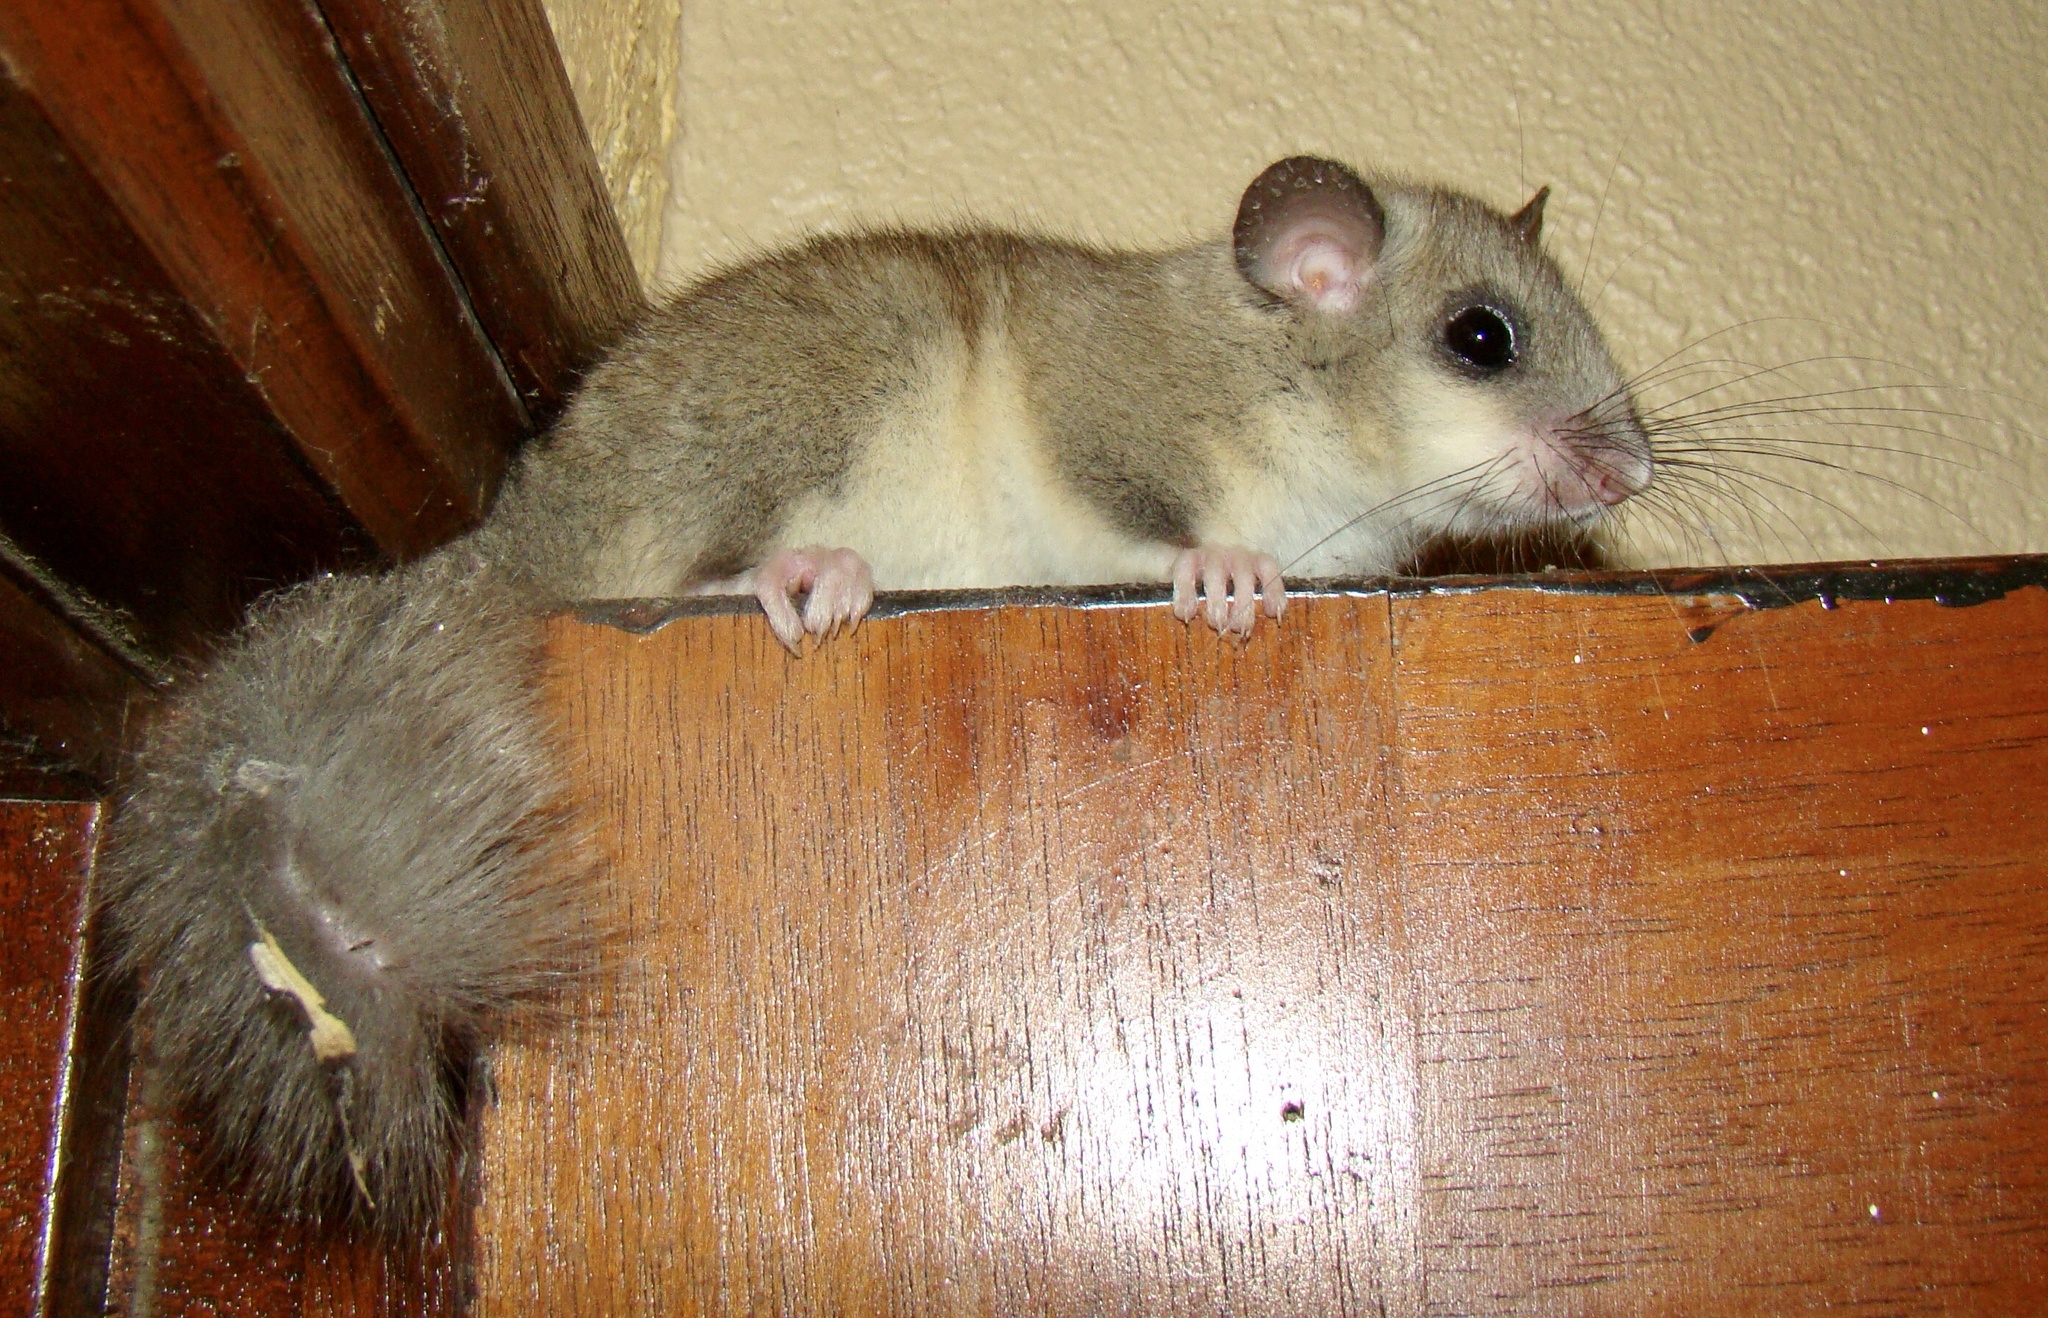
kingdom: Animalia
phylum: Chordata
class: Mammalia
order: Rodentia
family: Gliridae
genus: Glis
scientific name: Glis glis
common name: Fat dormouse
